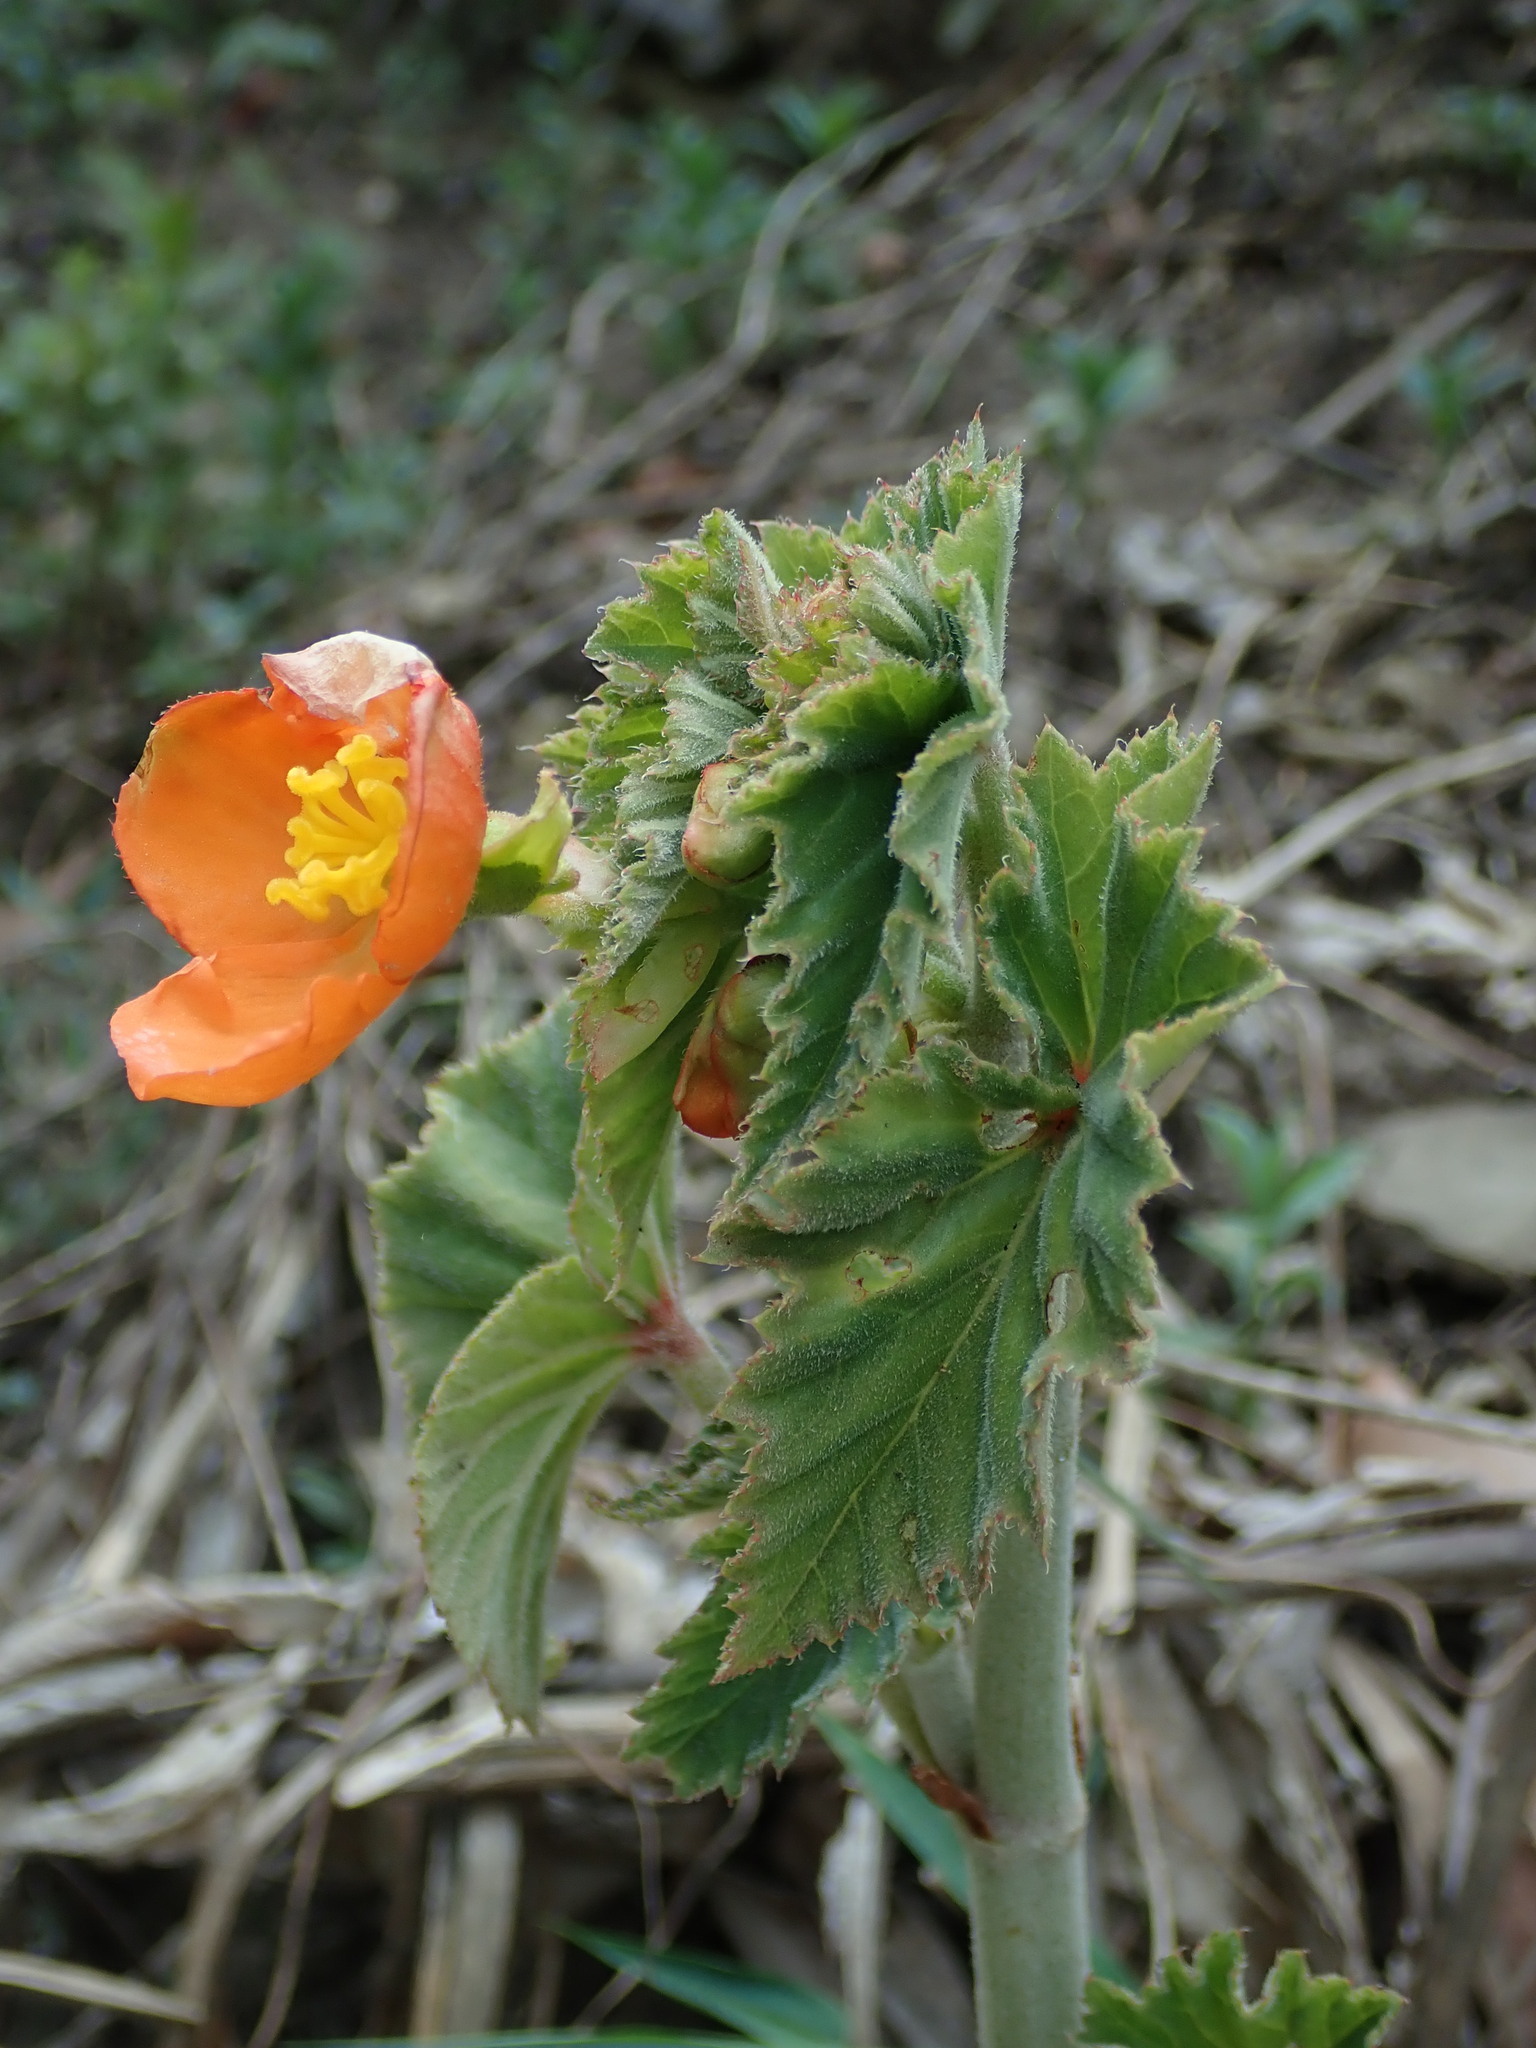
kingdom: Plantae
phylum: Tracheophyta
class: Magnoliopsida
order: Cucurbitales
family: Begoniaceae
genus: Begonia
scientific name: Begonia cinnabarina
